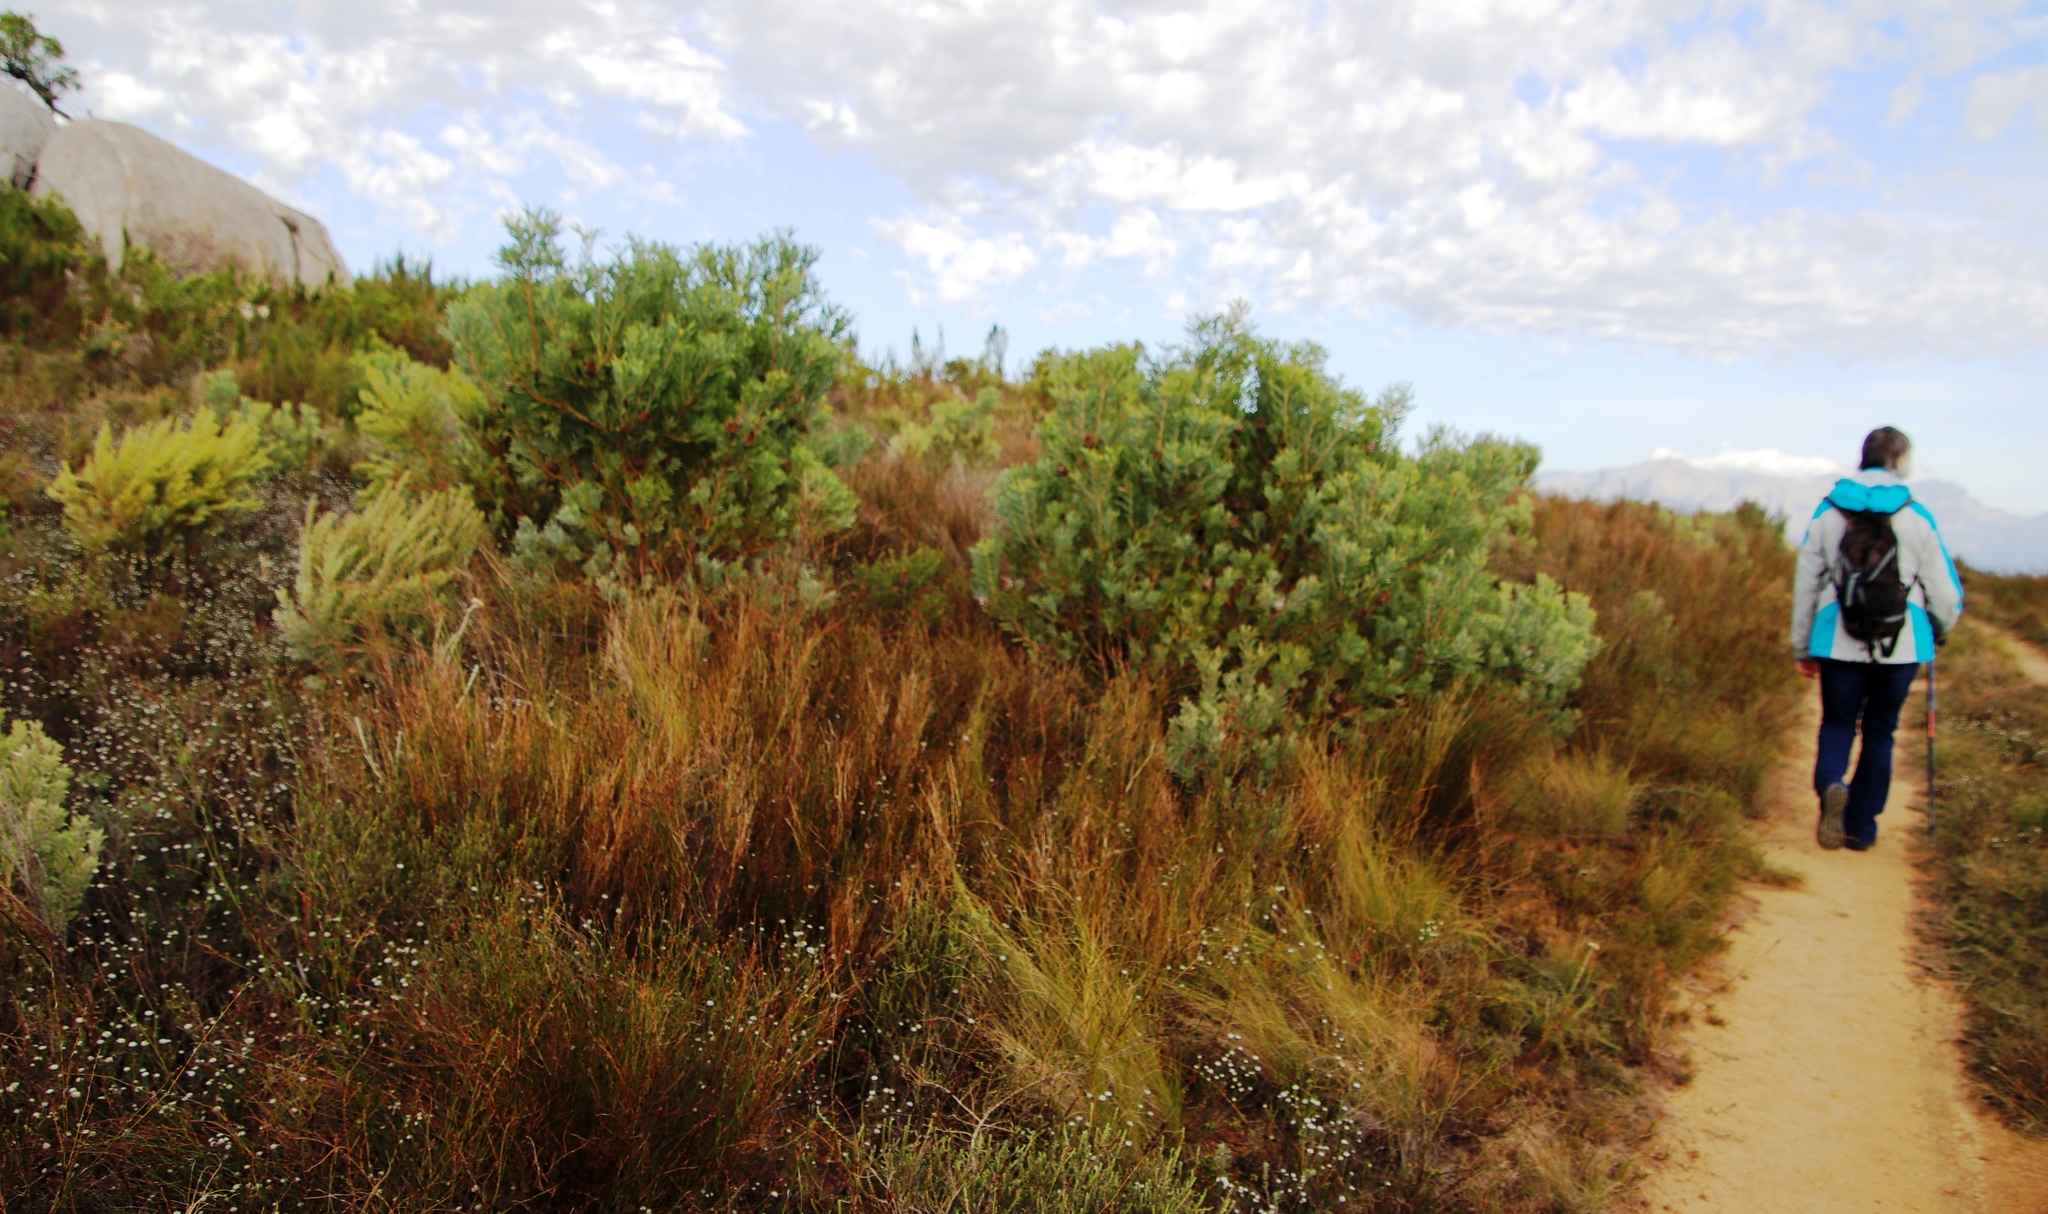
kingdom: Plantae
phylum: Tracheophyta
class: Magnoliopsida
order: Proteales
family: Proteaceae
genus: Protea
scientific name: Protea repens
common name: Sugarbush
